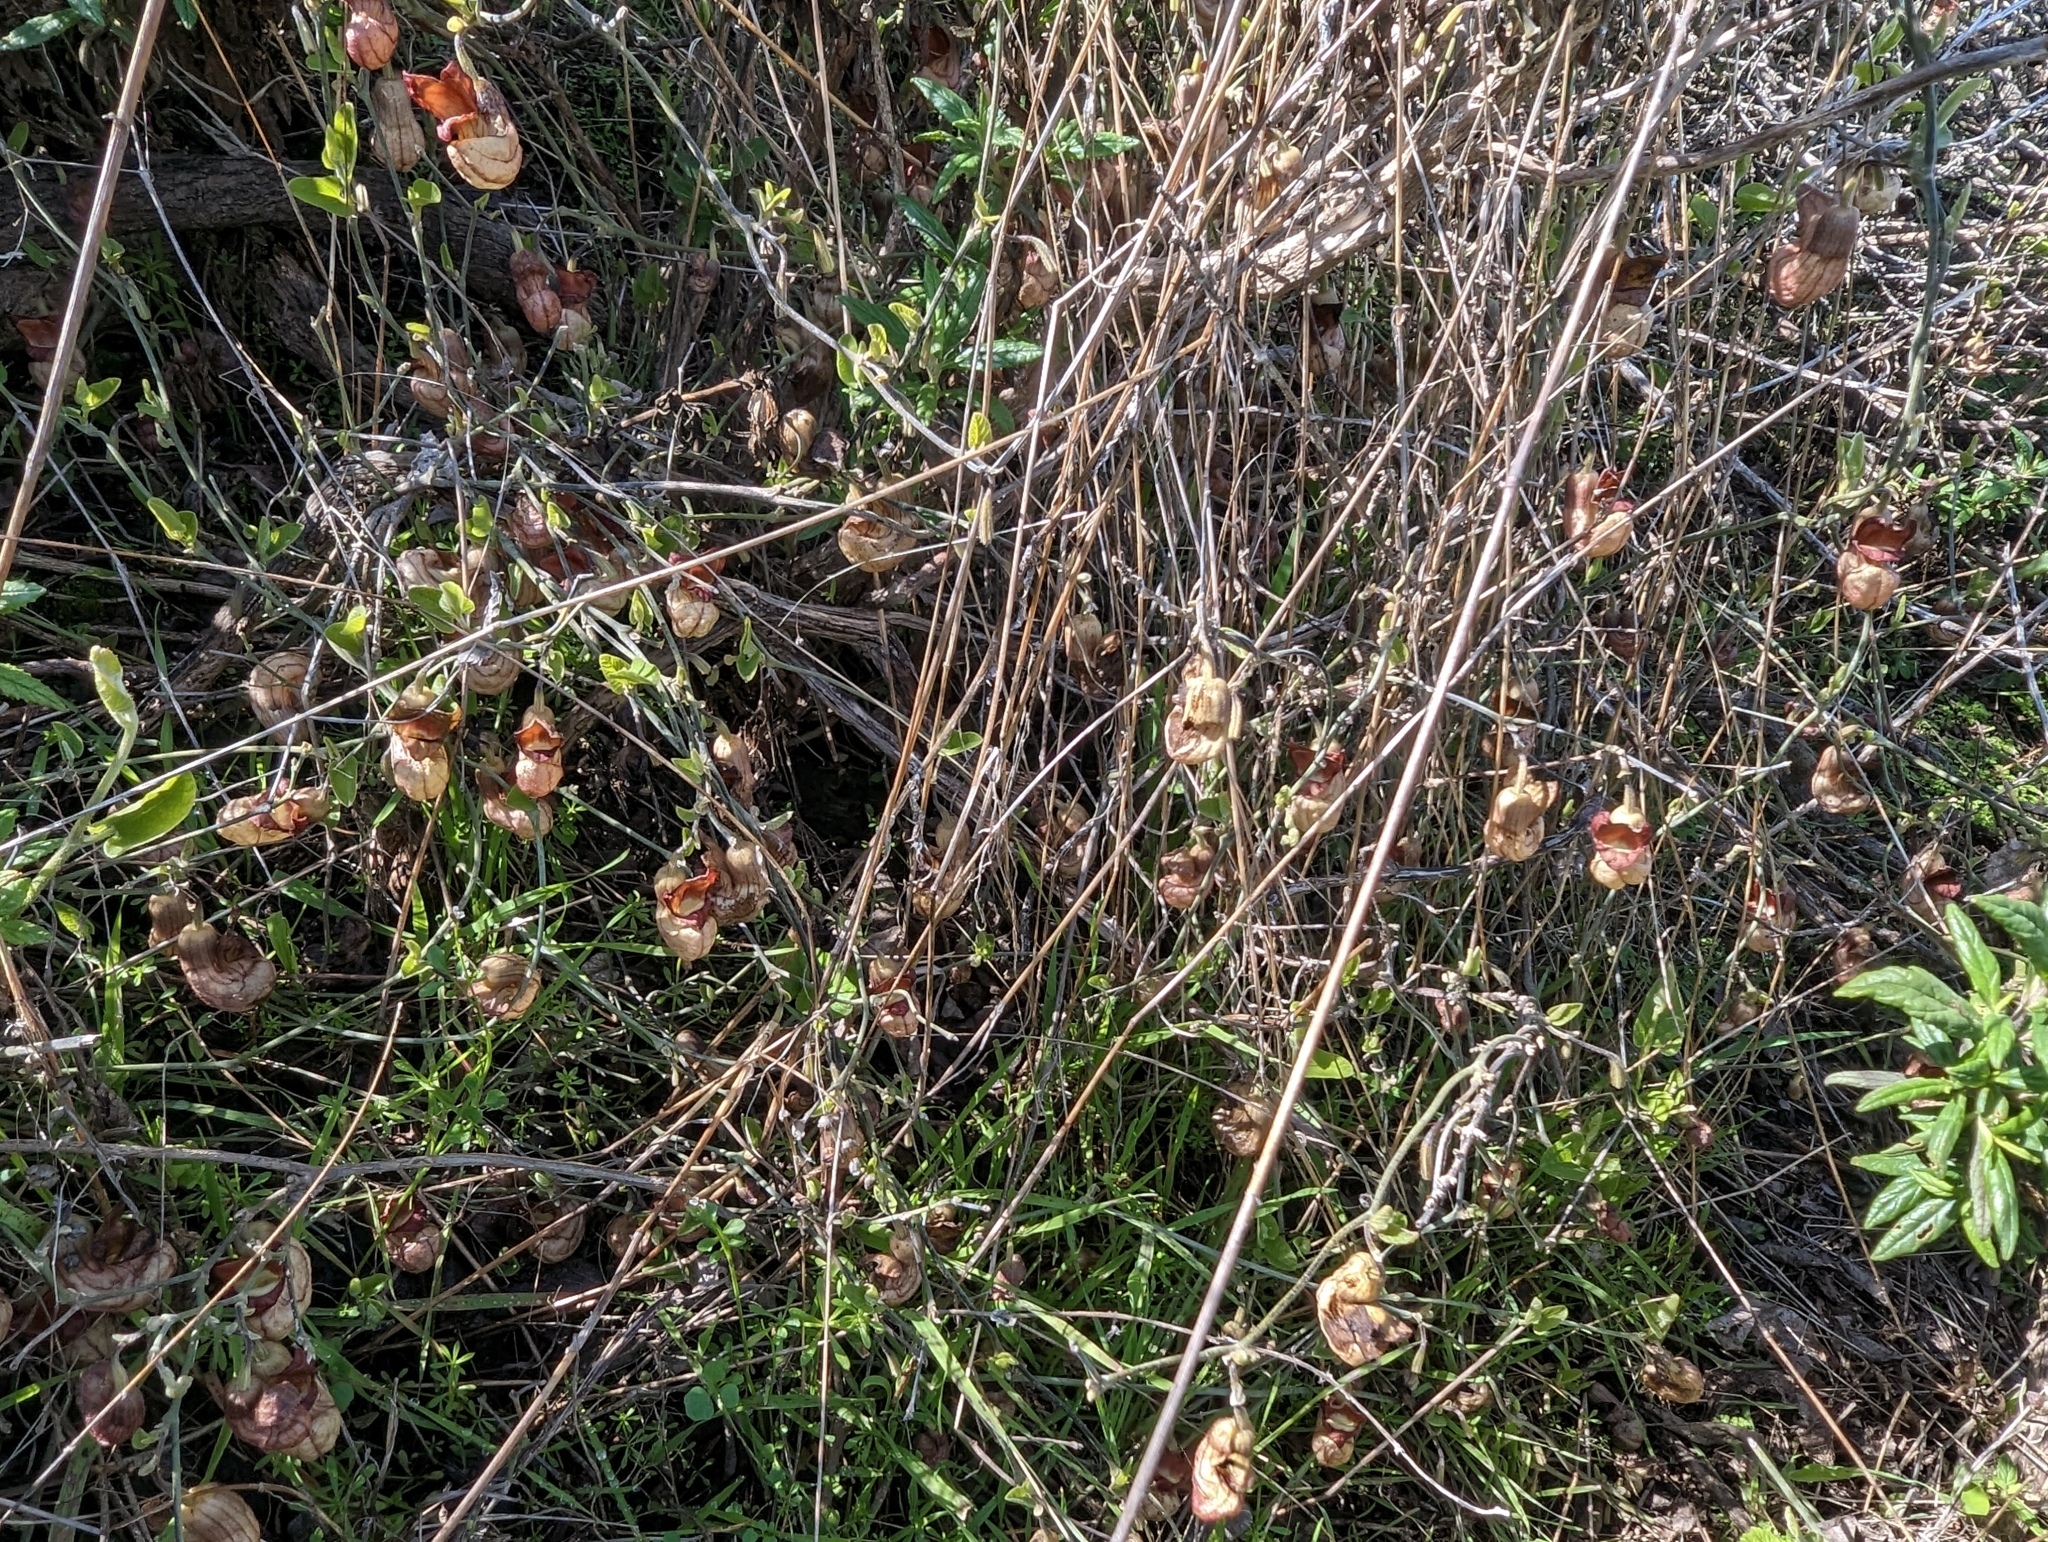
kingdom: Plantae
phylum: Tracheophyta
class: Magnoliopsida
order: Piperales
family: Aristolochiaceae
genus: Isotrema
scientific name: Isotrema californicum
